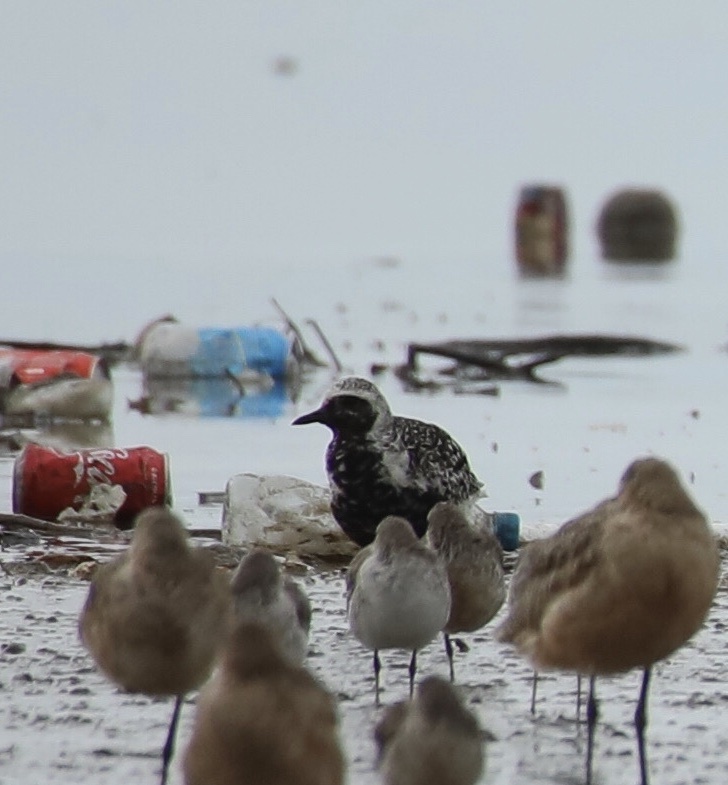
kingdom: Animalia
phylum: Chordata
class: Aves
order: Charadriiformes
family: Charadriidae
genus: Pluvialis
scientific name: Pluvialis squatarola
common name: Grey plover
